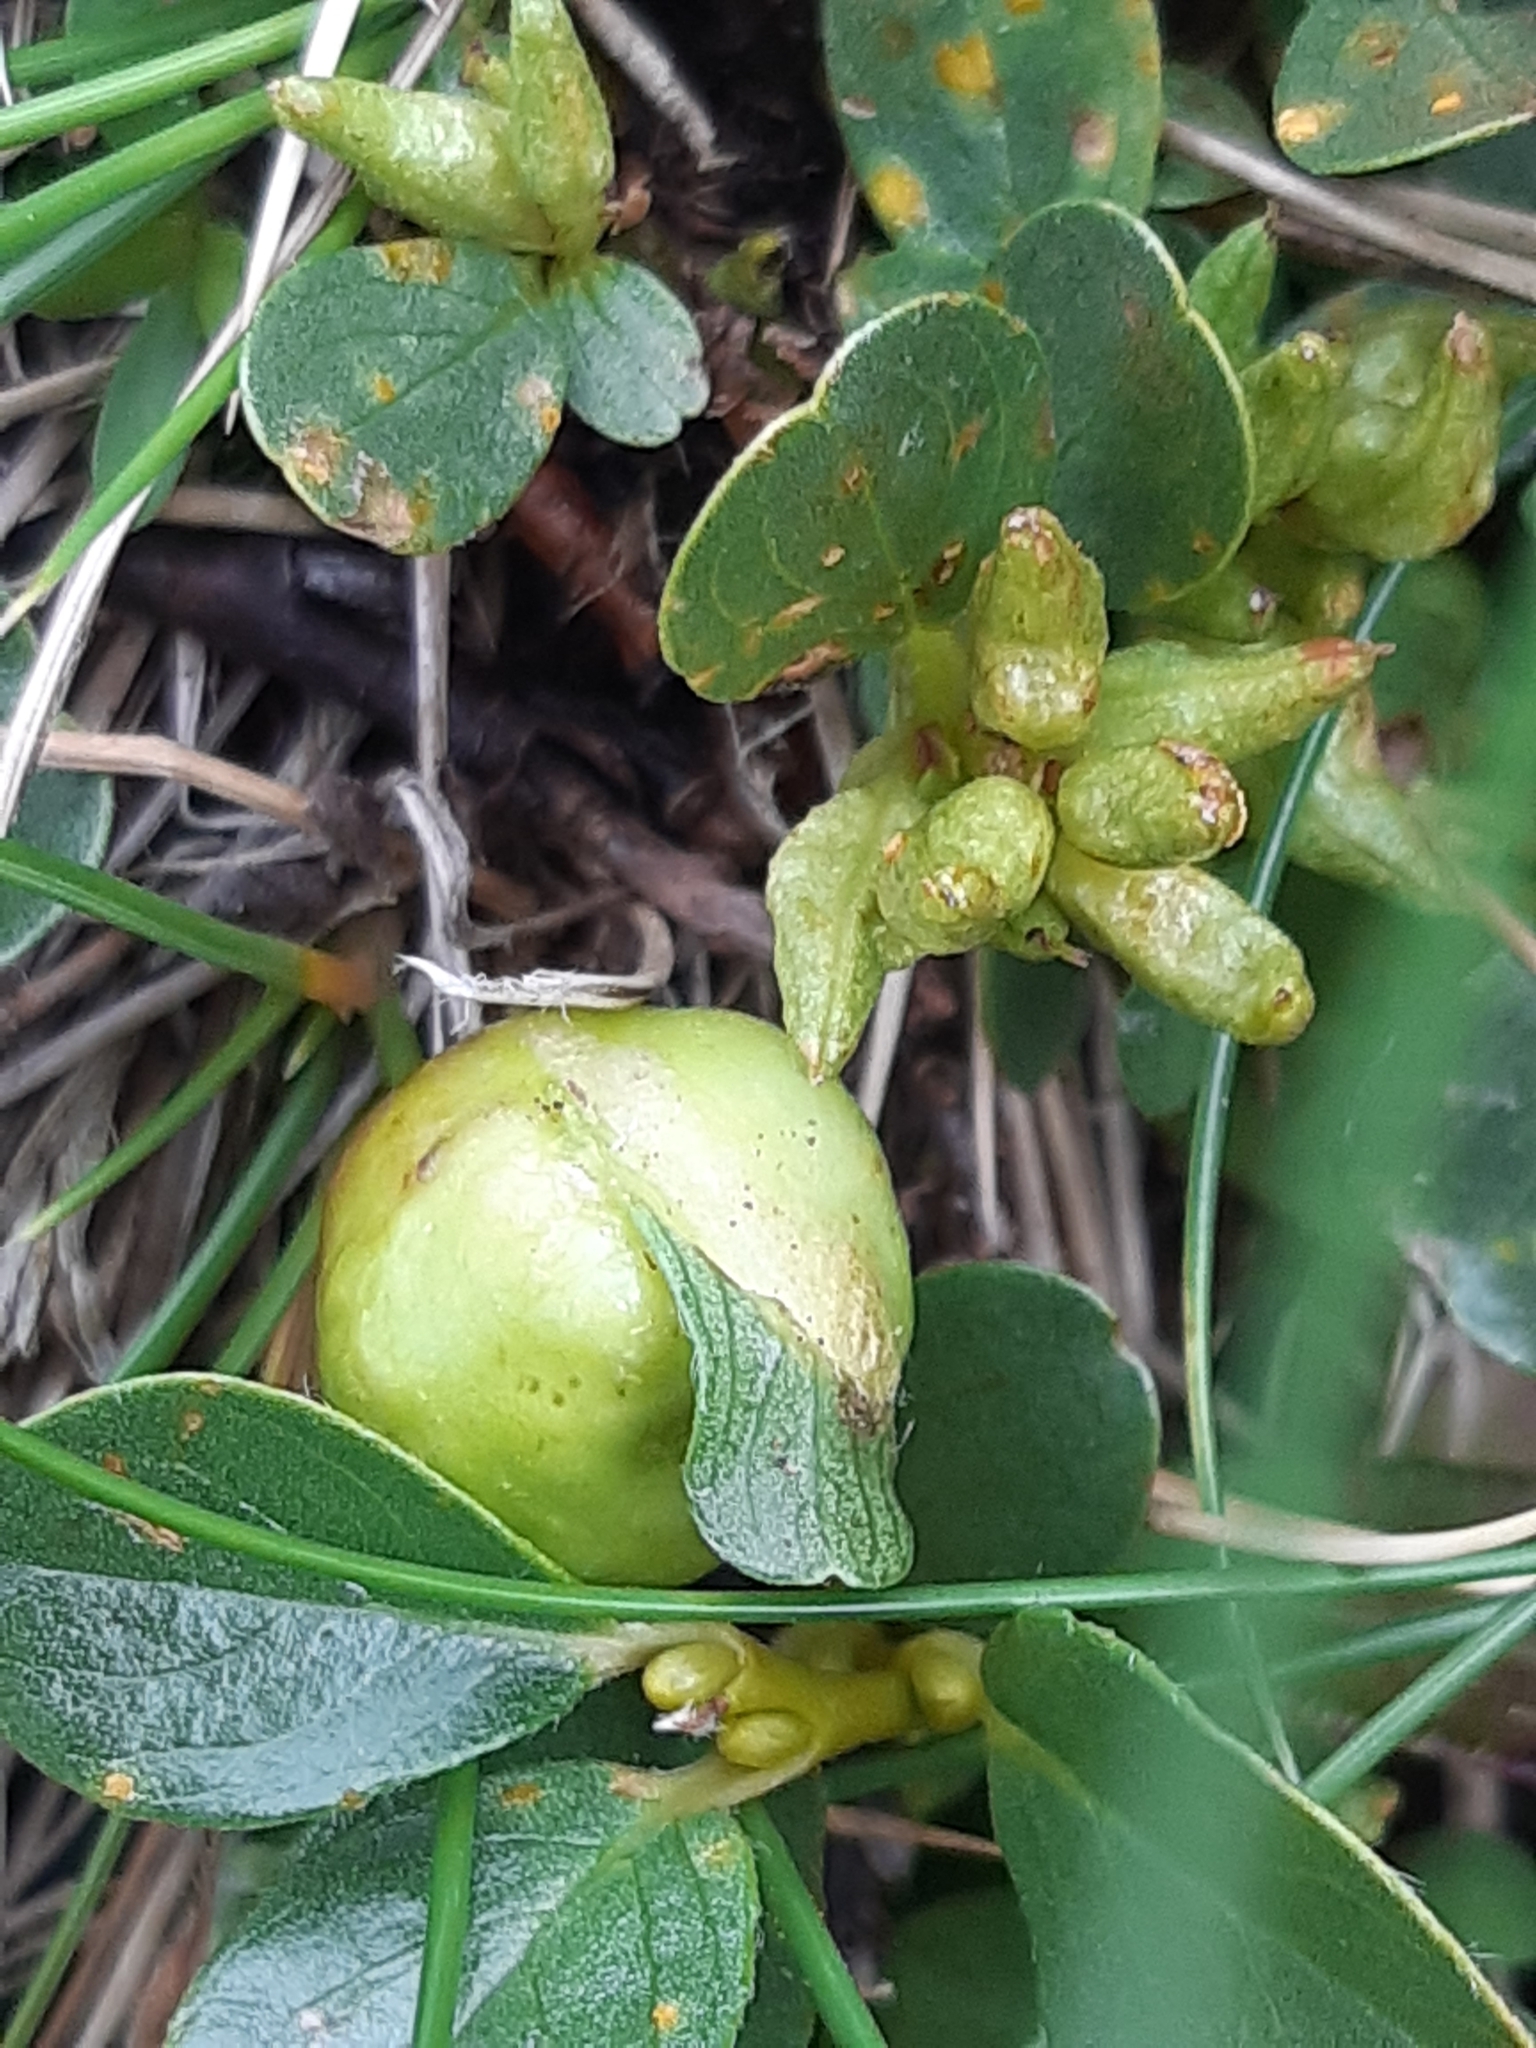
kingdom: Animalia
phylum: Arthropoda
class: Insecta
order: Hymenoptera
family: Tenthredinidae
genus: Euura
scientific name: Euura retusae
